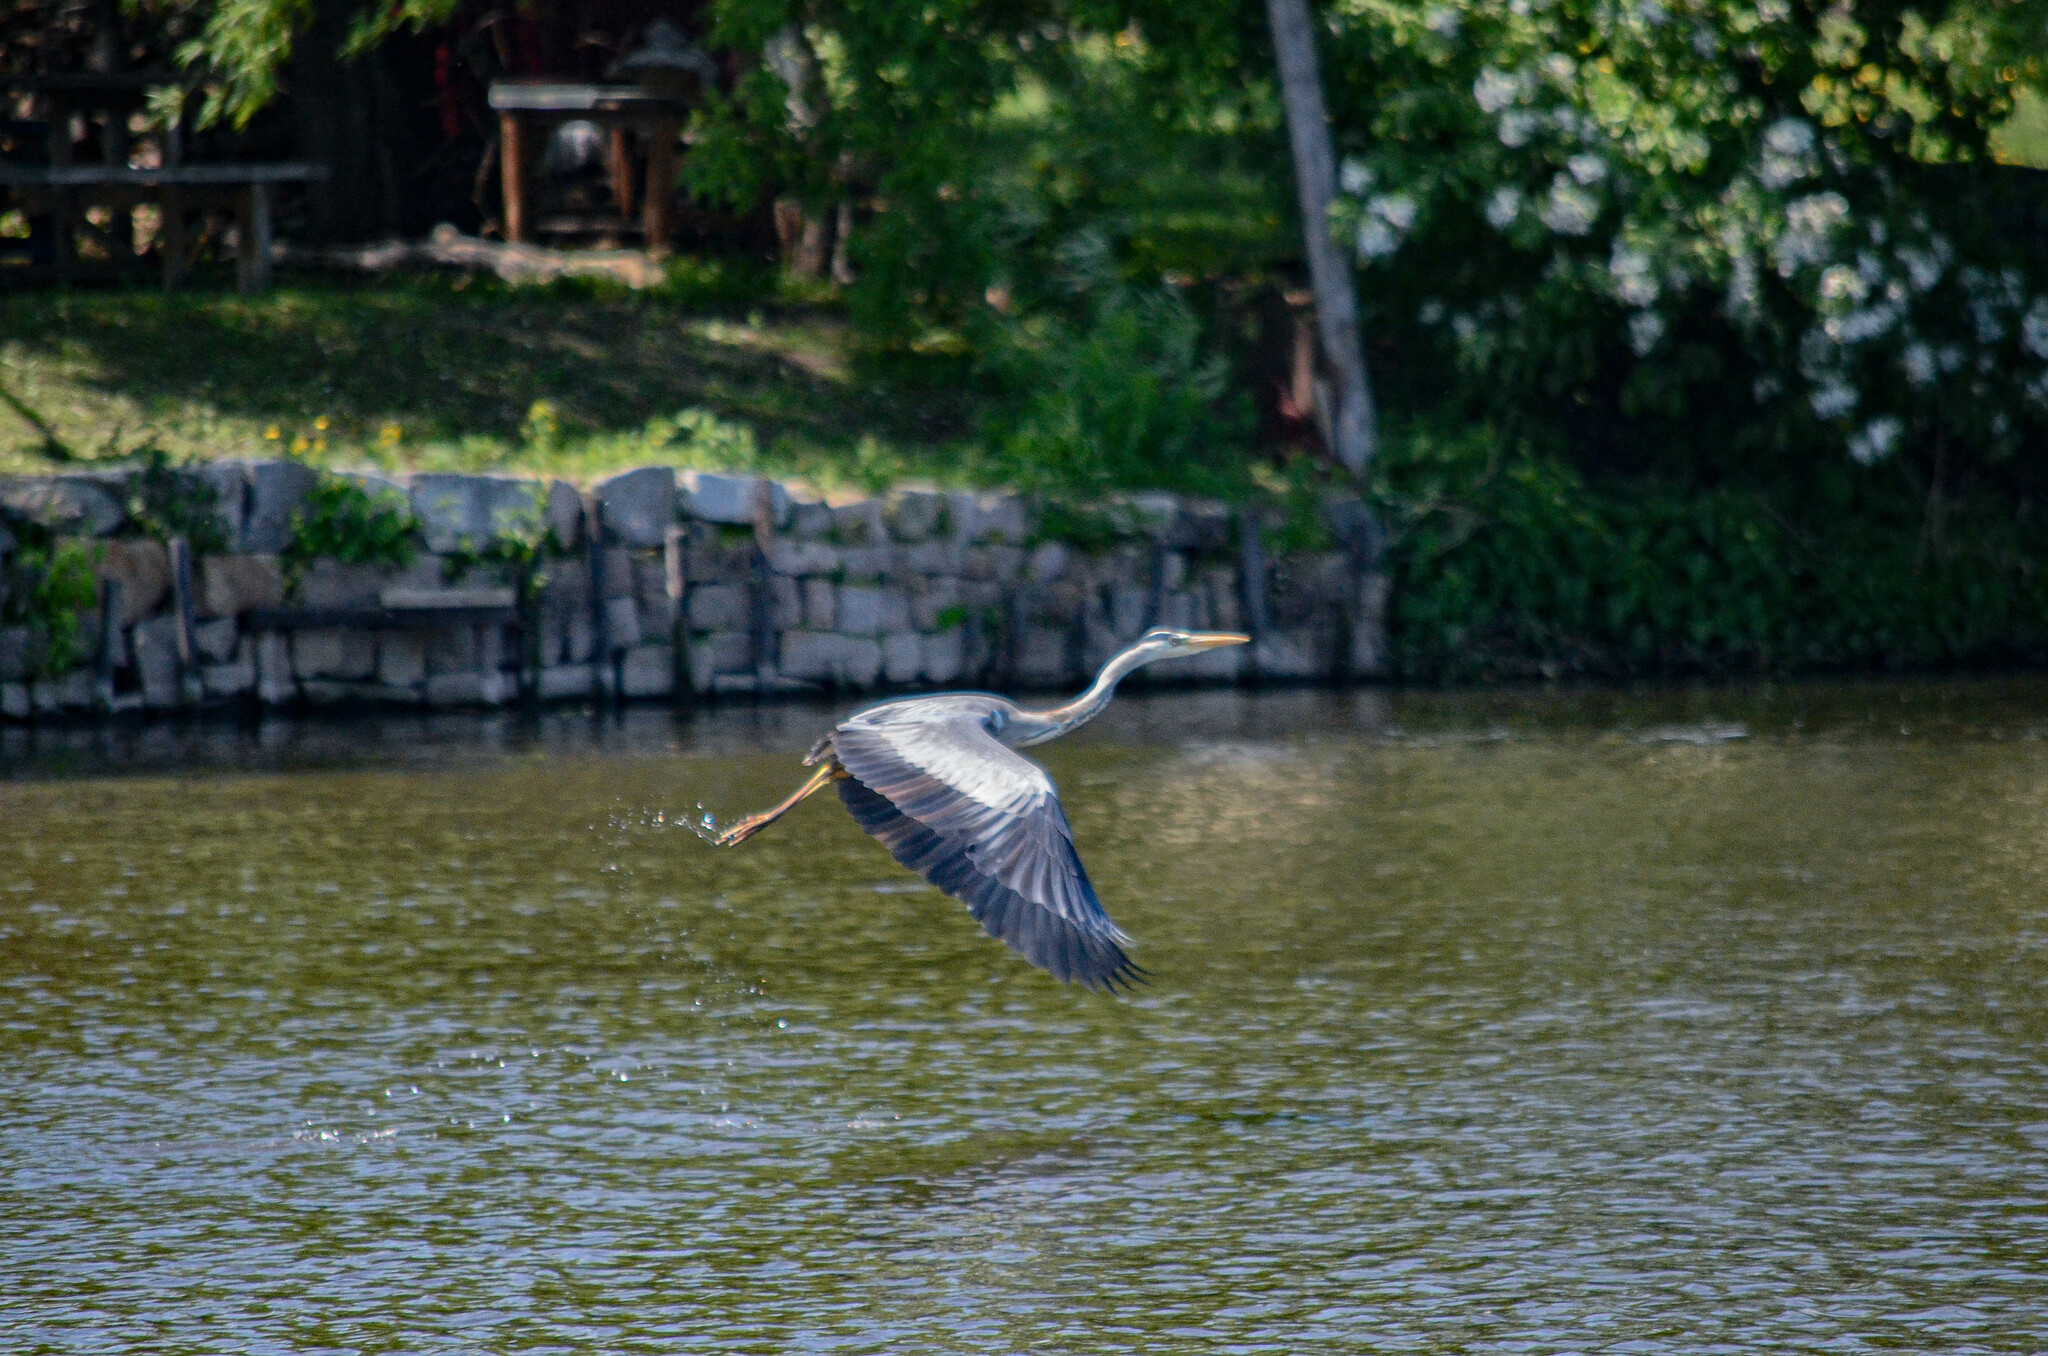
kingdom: Animalia
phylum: Chordata
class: Aves
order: Pelecaniformes
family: Ardeidae
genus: Ardea
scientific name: Ardea cinerea
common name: Grey heron
